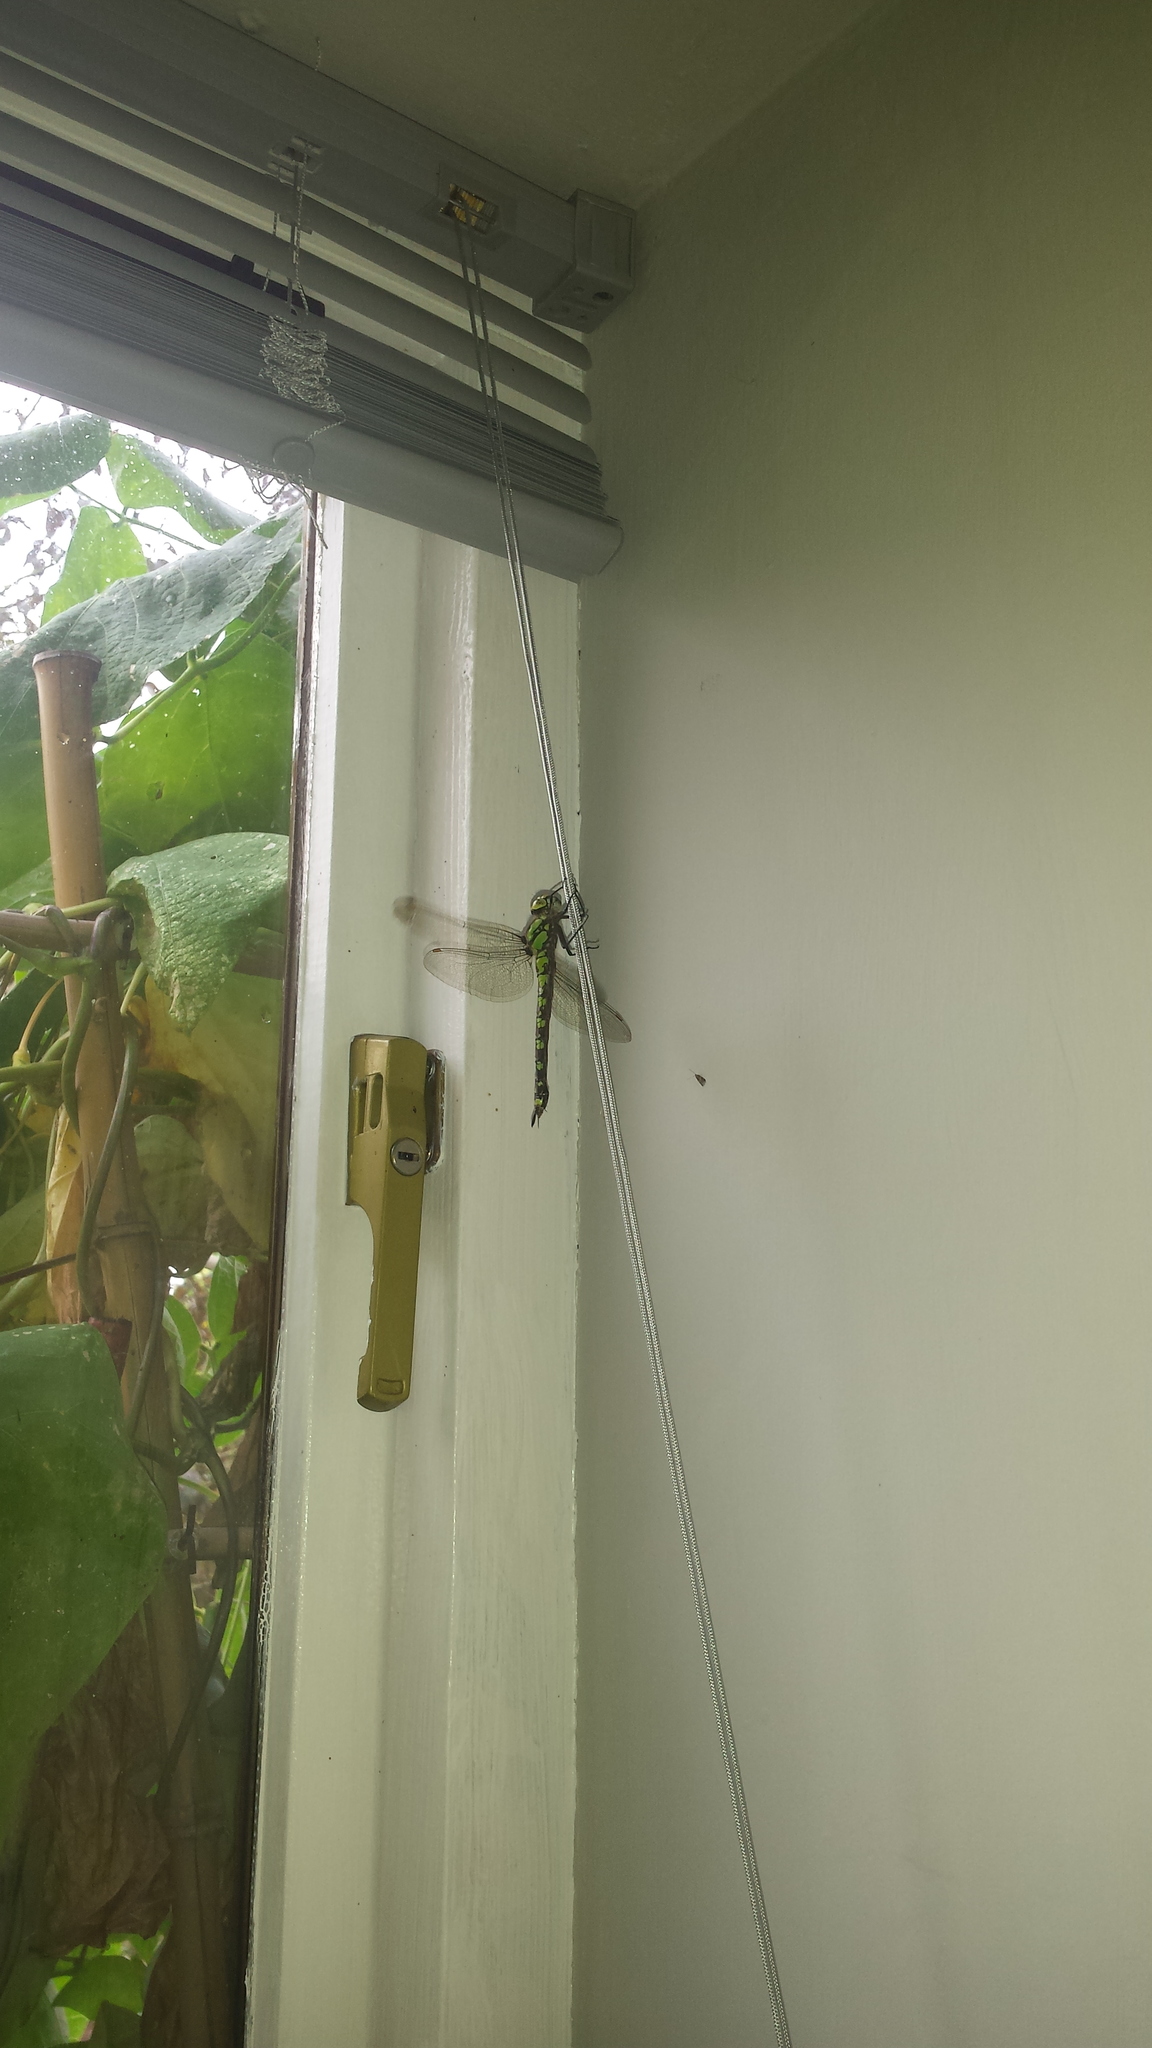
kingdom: Animalia
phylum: Arthropoda
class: Insecta
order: Odonata
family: Aeshnidae
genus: Aeshna
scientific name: Aeshna cyanea
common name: Southern hawker
